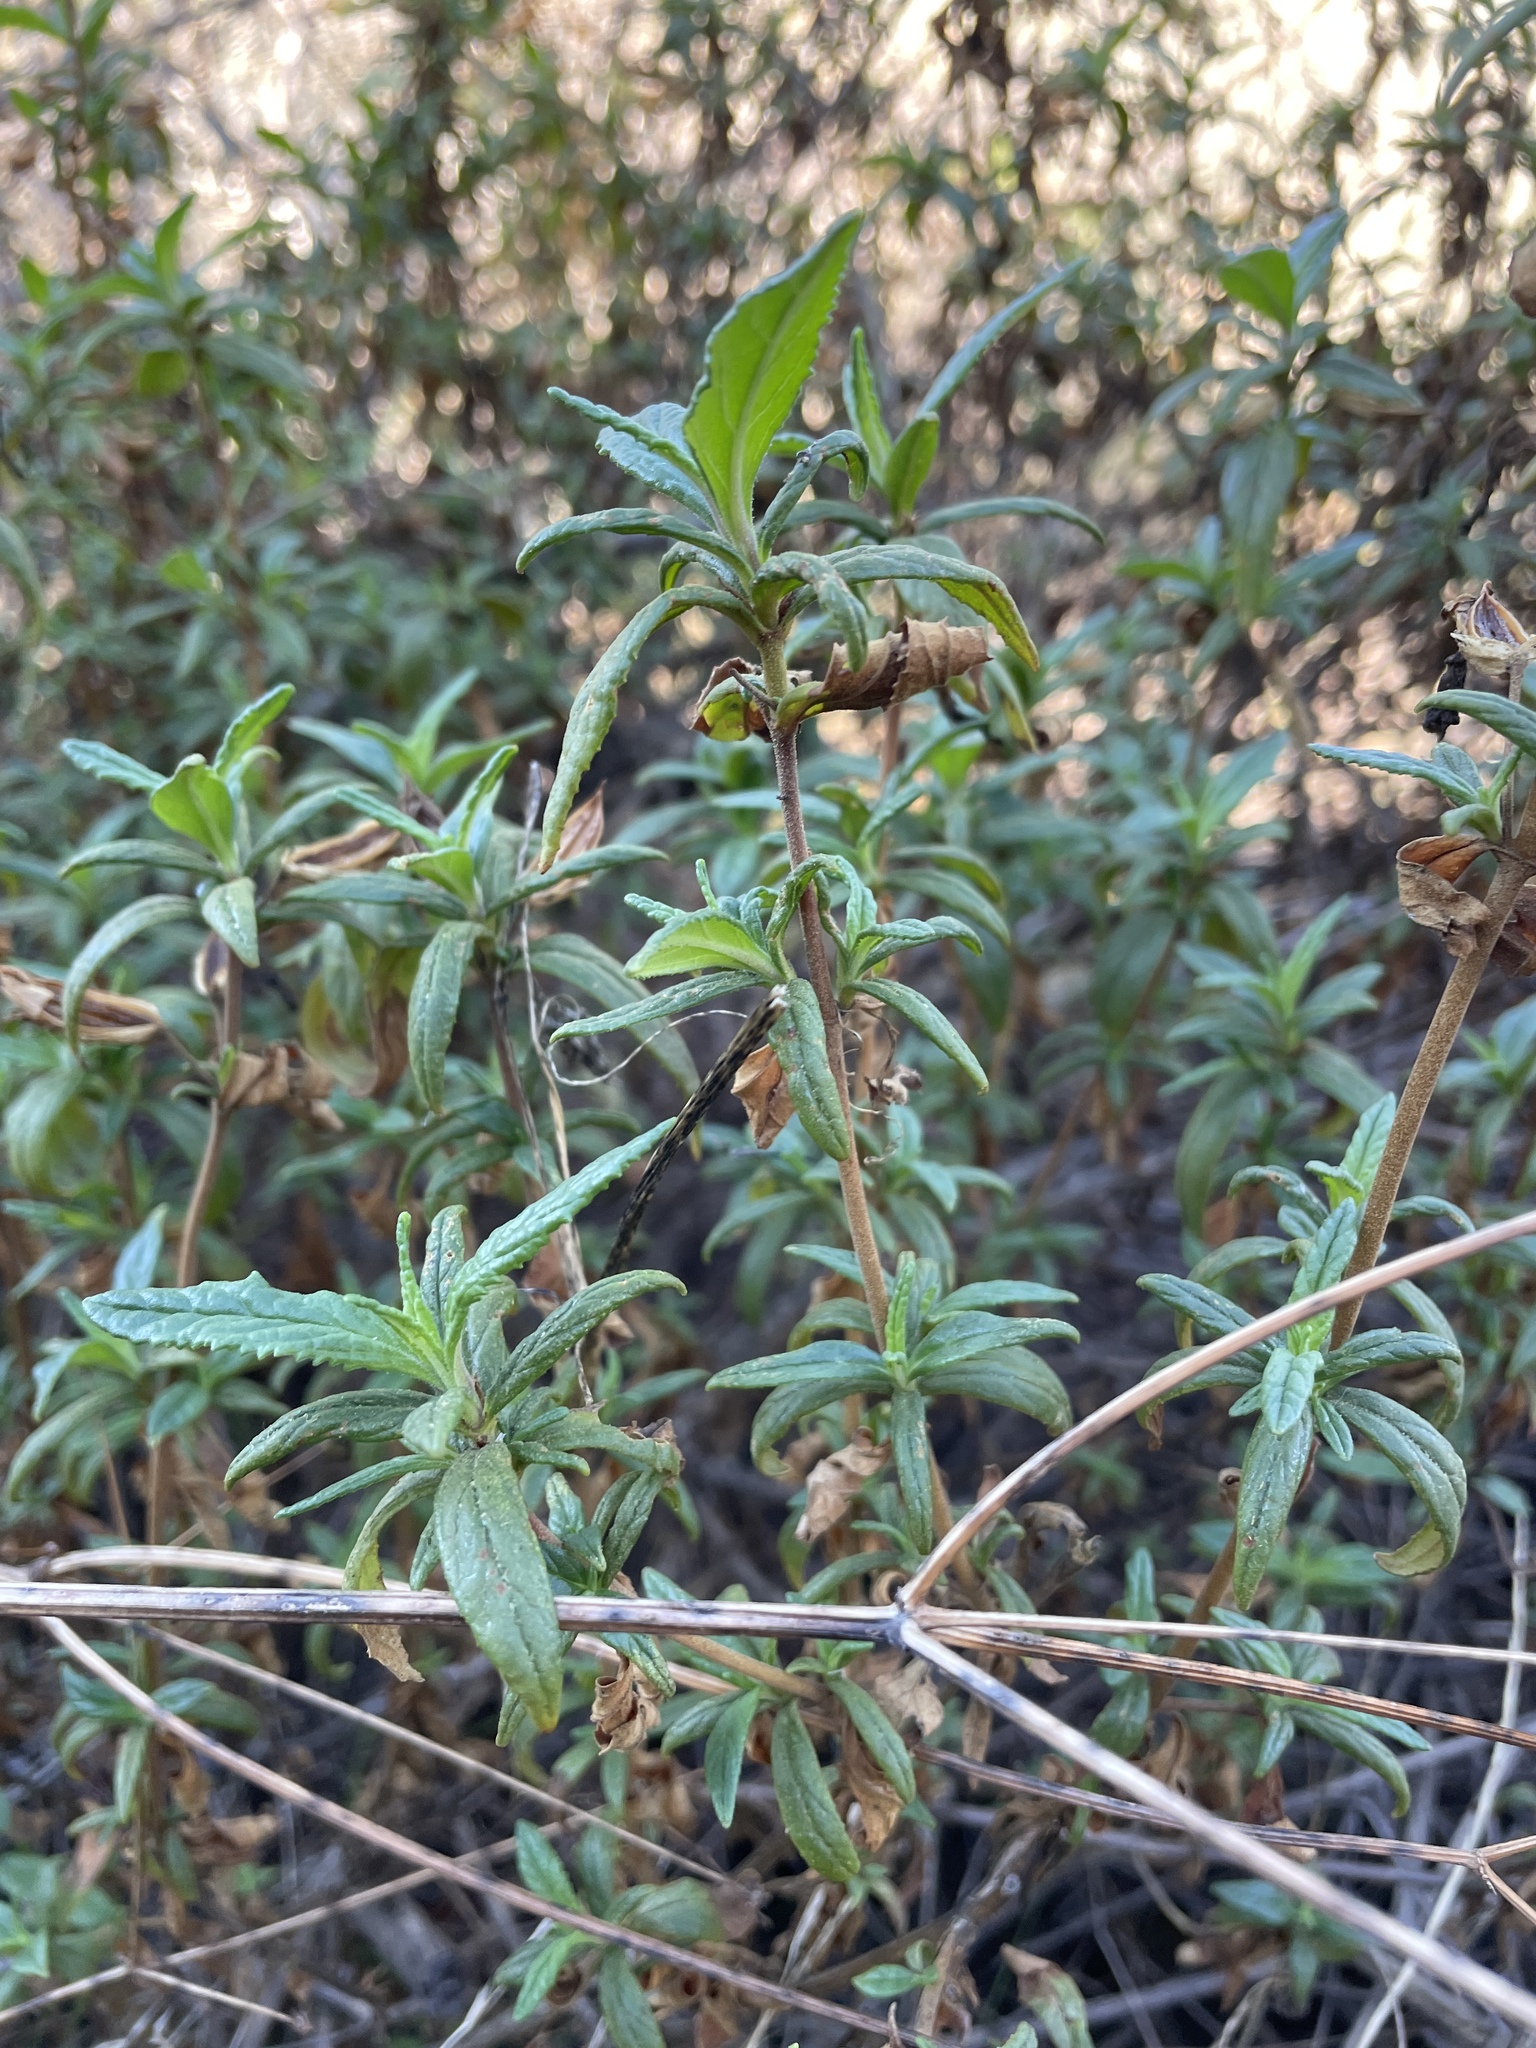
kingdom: Plantae
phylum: Tracheophyta
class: Magnoliopsida
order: Lamiales
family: Phrymaceae
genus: Diplacus
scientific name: Diplacus aurantiacus
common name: Bush monkey-flower
